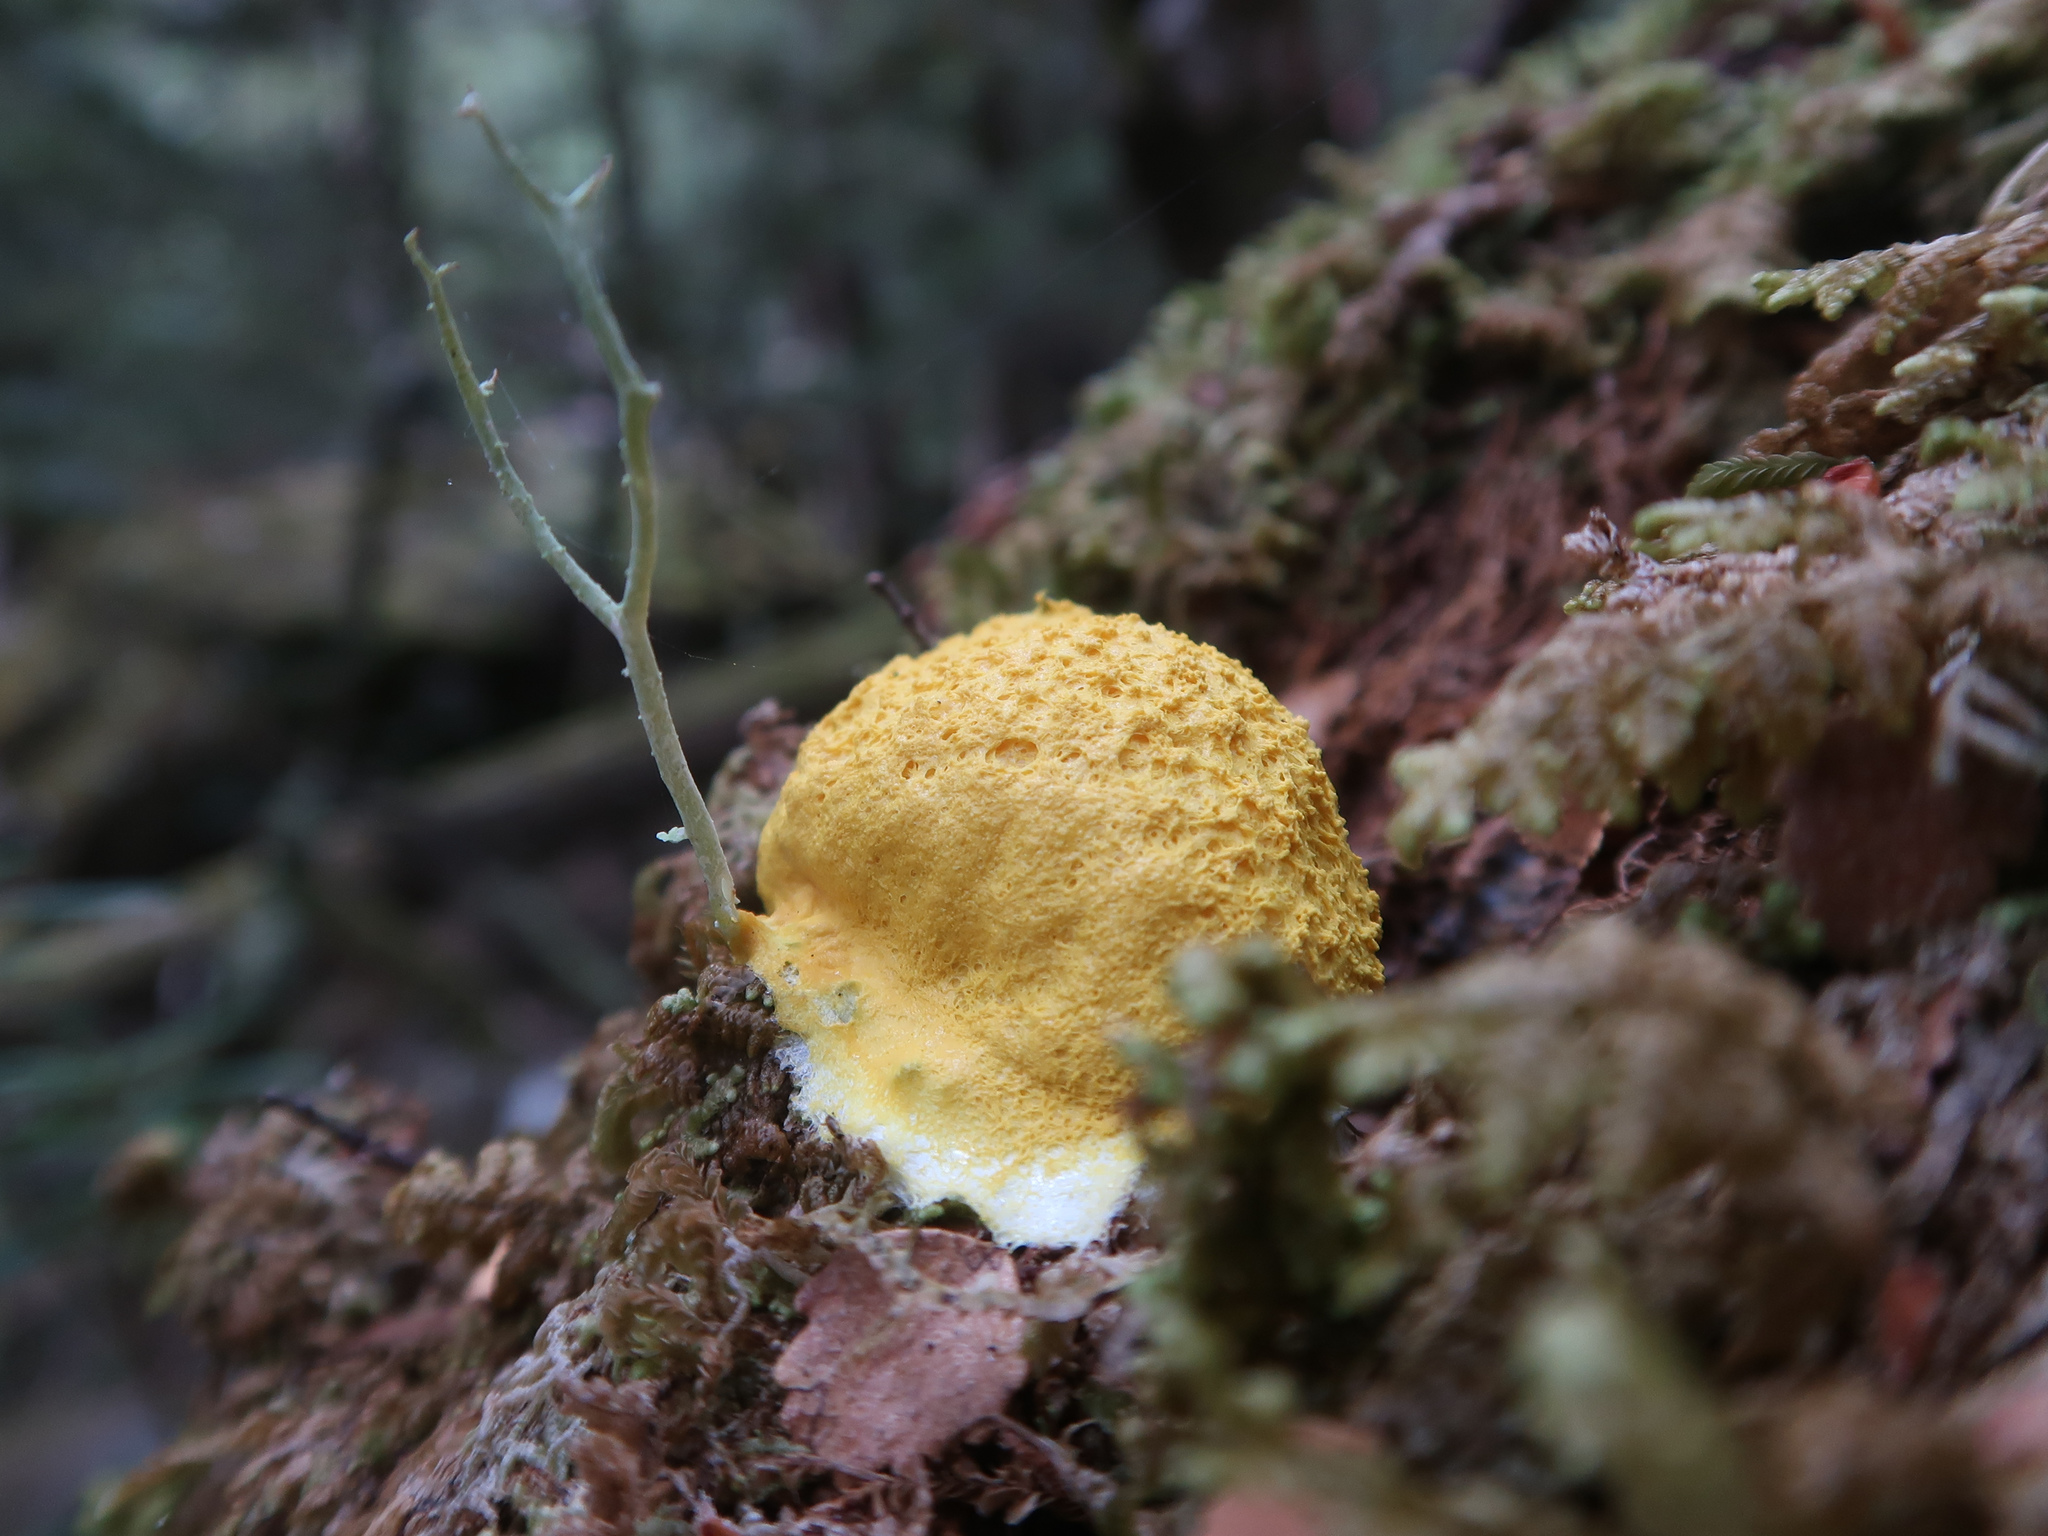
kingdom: Protozoa
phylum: Mycetozoa
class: Myxomycetes
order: Physarales
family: Physaraceae
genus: Fuligo
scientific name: Fuligo septica
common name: Dog vomit slime mold
